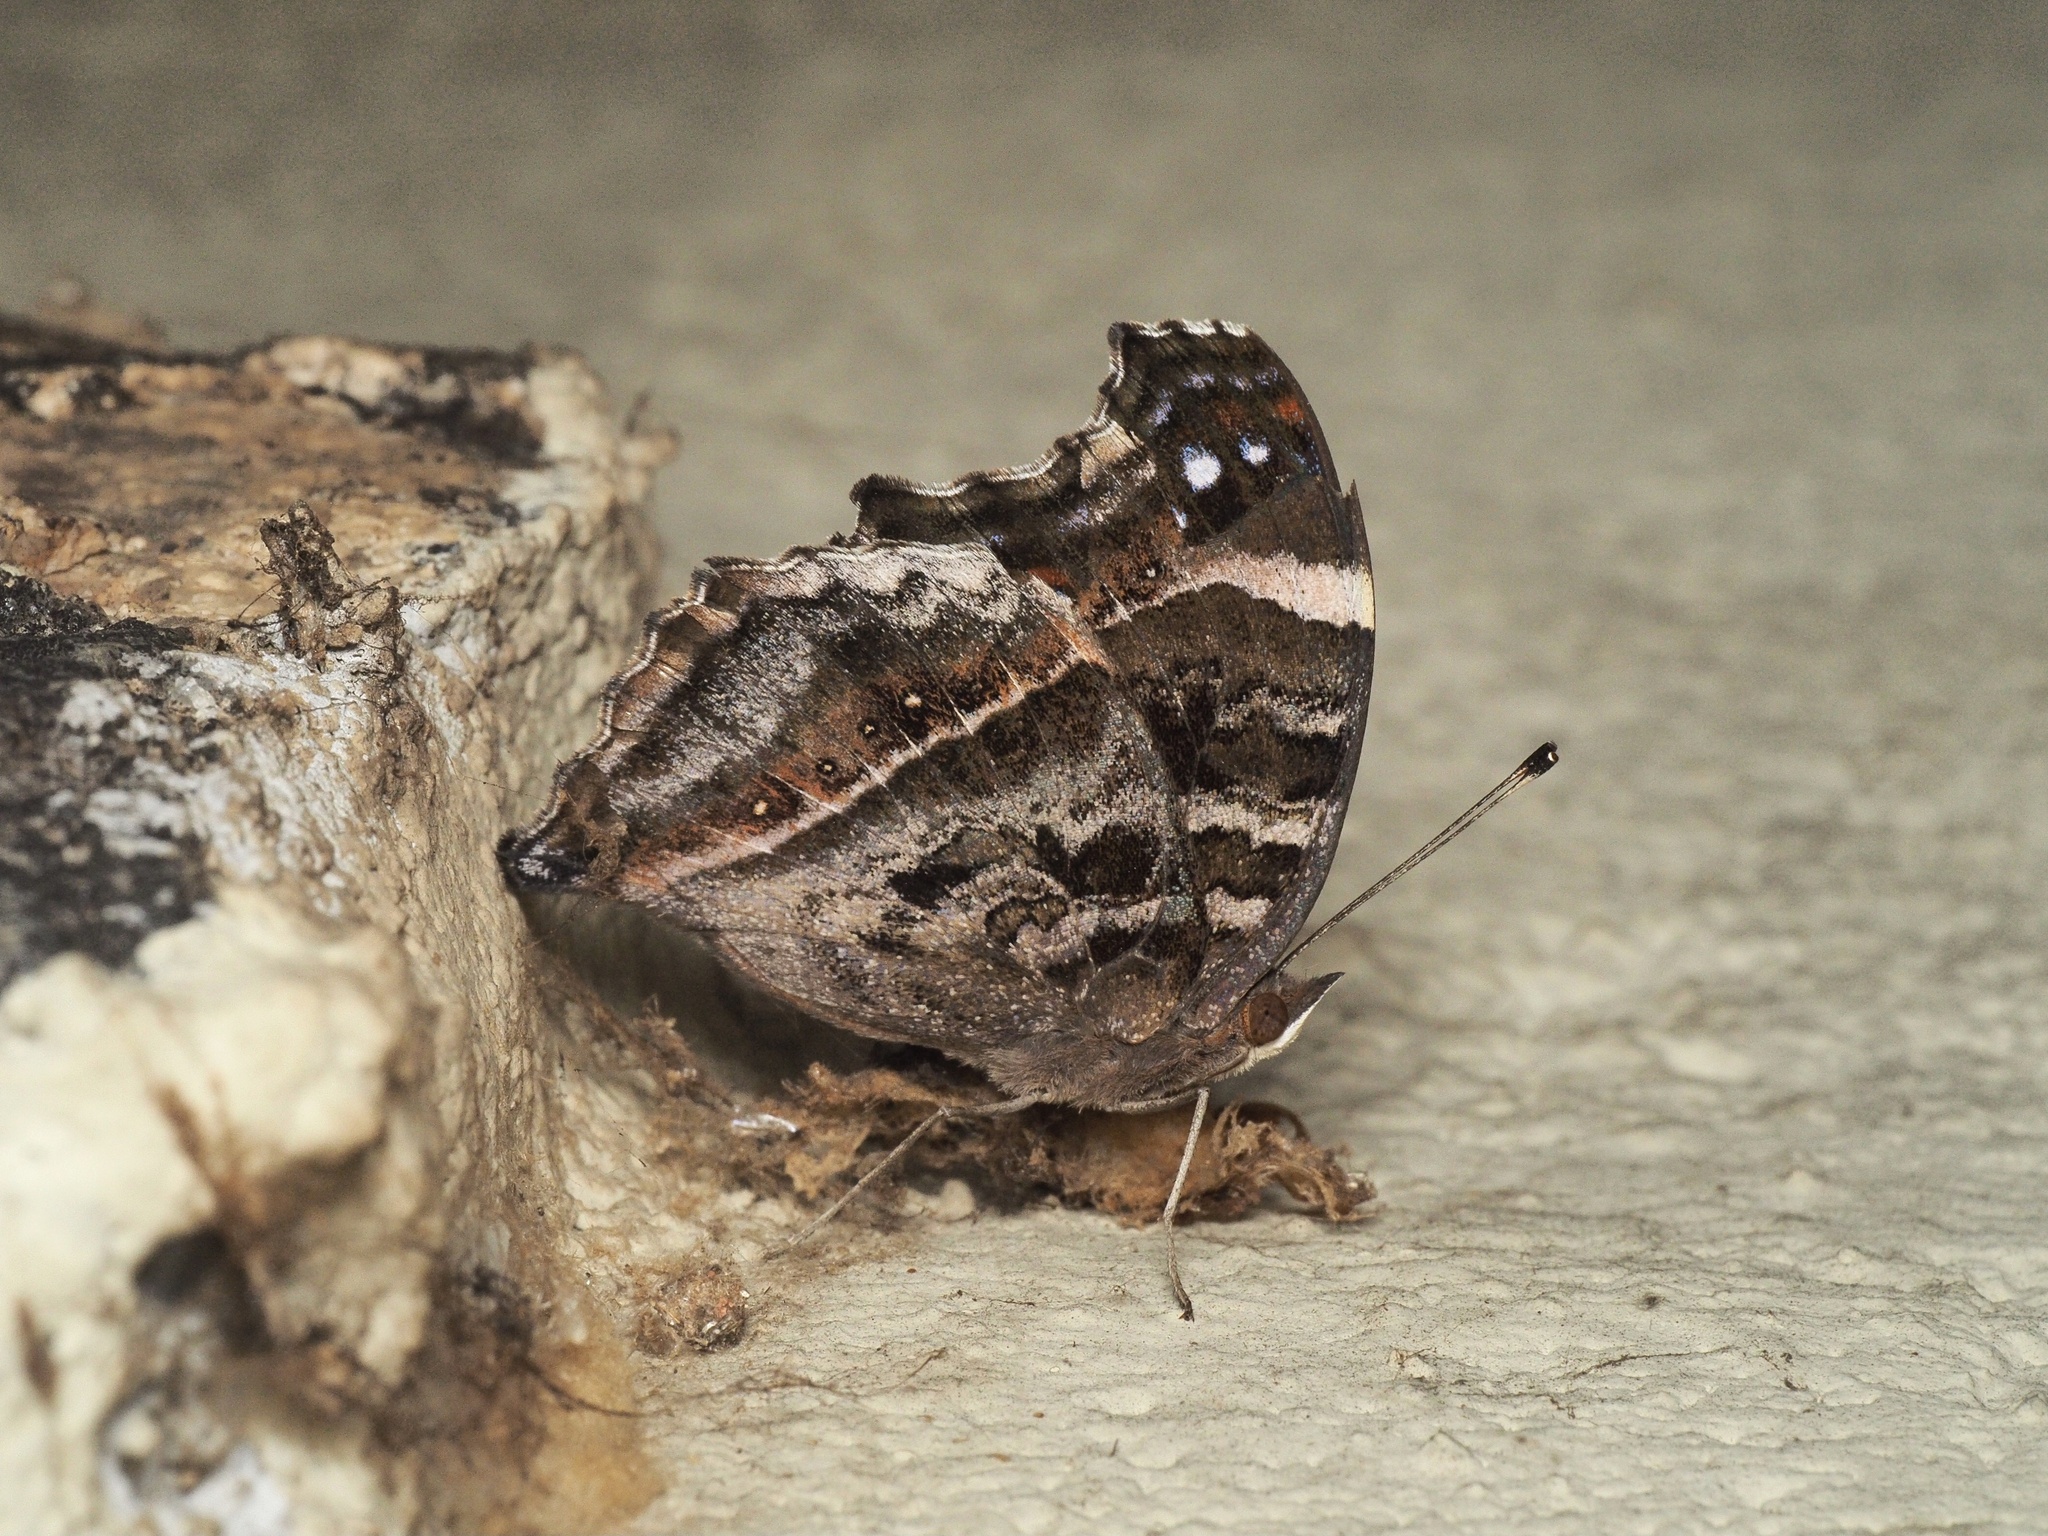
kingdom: Animalia
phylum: Arthropoda
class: Insecta
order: Lepidoptera
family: Nymphalidae
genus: Junonia
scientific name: Junonia archesia
